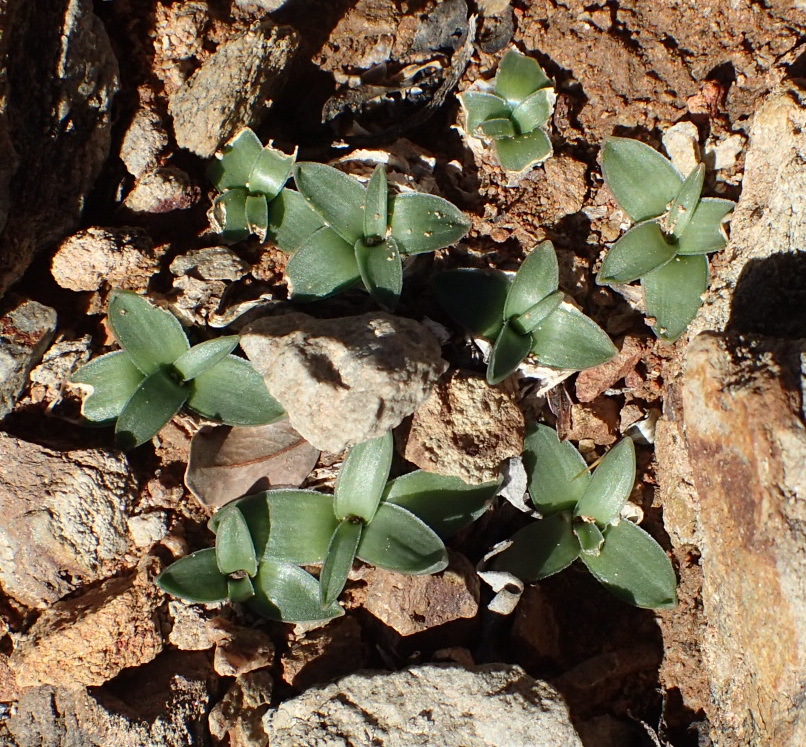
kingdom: Plantae
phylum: Tracheophyta
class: Liliopsida
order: Asparagales
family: Asparagaceae
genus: Drimia
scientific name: Drimia ciliata
